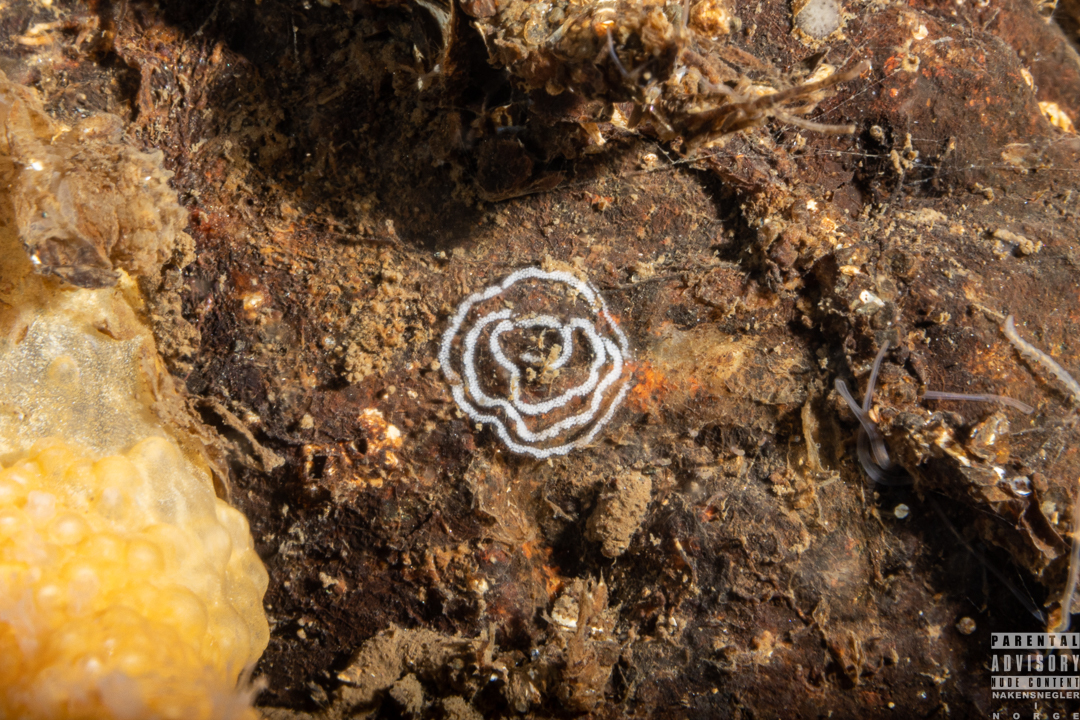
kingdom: Animalia
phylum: Mollusca
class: Gastropoda
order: Nudibranchia
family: Tritoniidae
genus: Duvaucelia
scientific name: Duvaucelia plebeia
